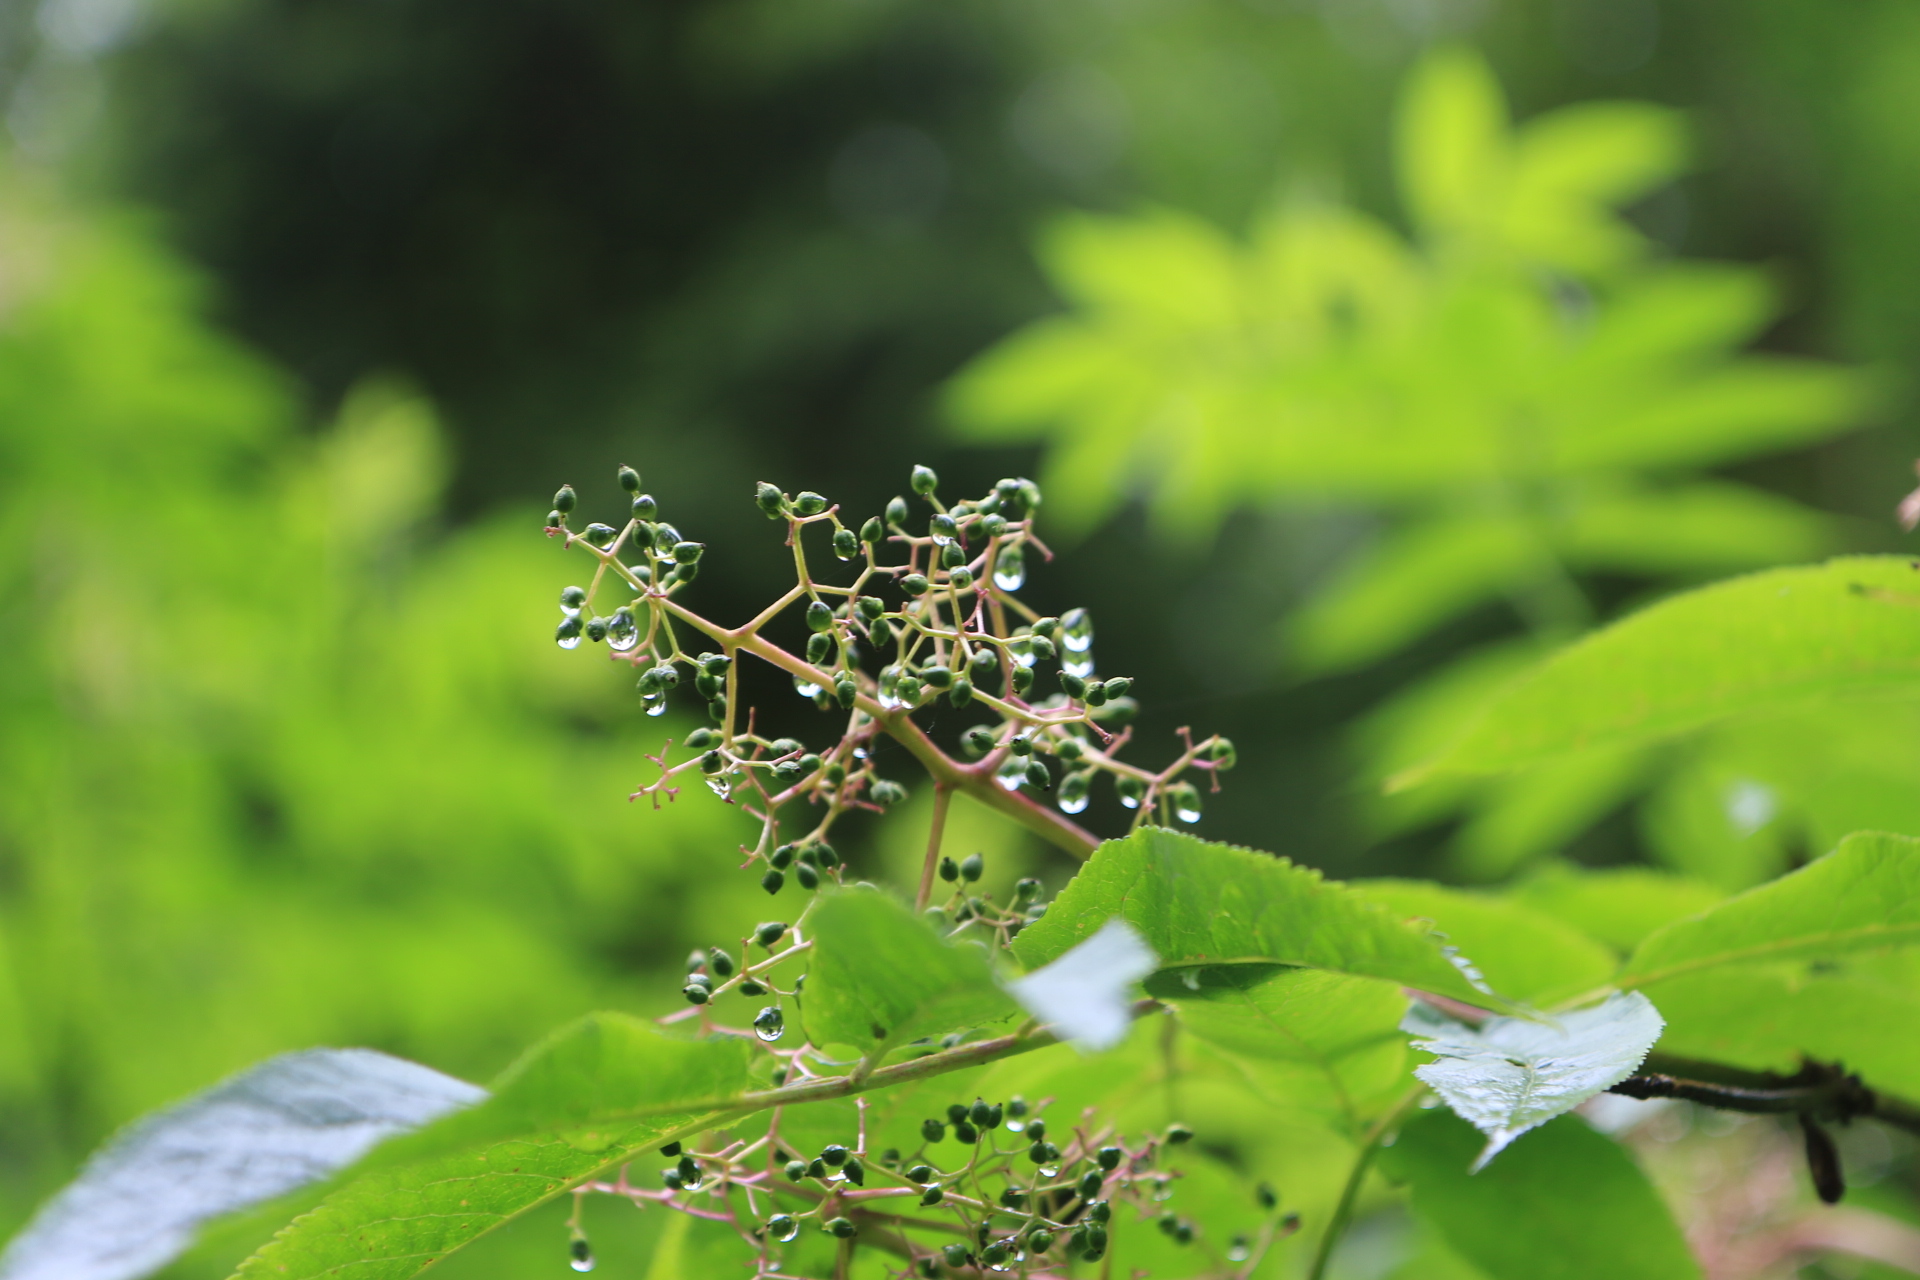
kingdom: Plantae
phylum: Tracheophyta
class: Magnoliopsida
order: Dipsacales
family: Viburnaceae
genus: Sambucus
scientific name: Sambucus racemosa
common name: Red-berried elder
